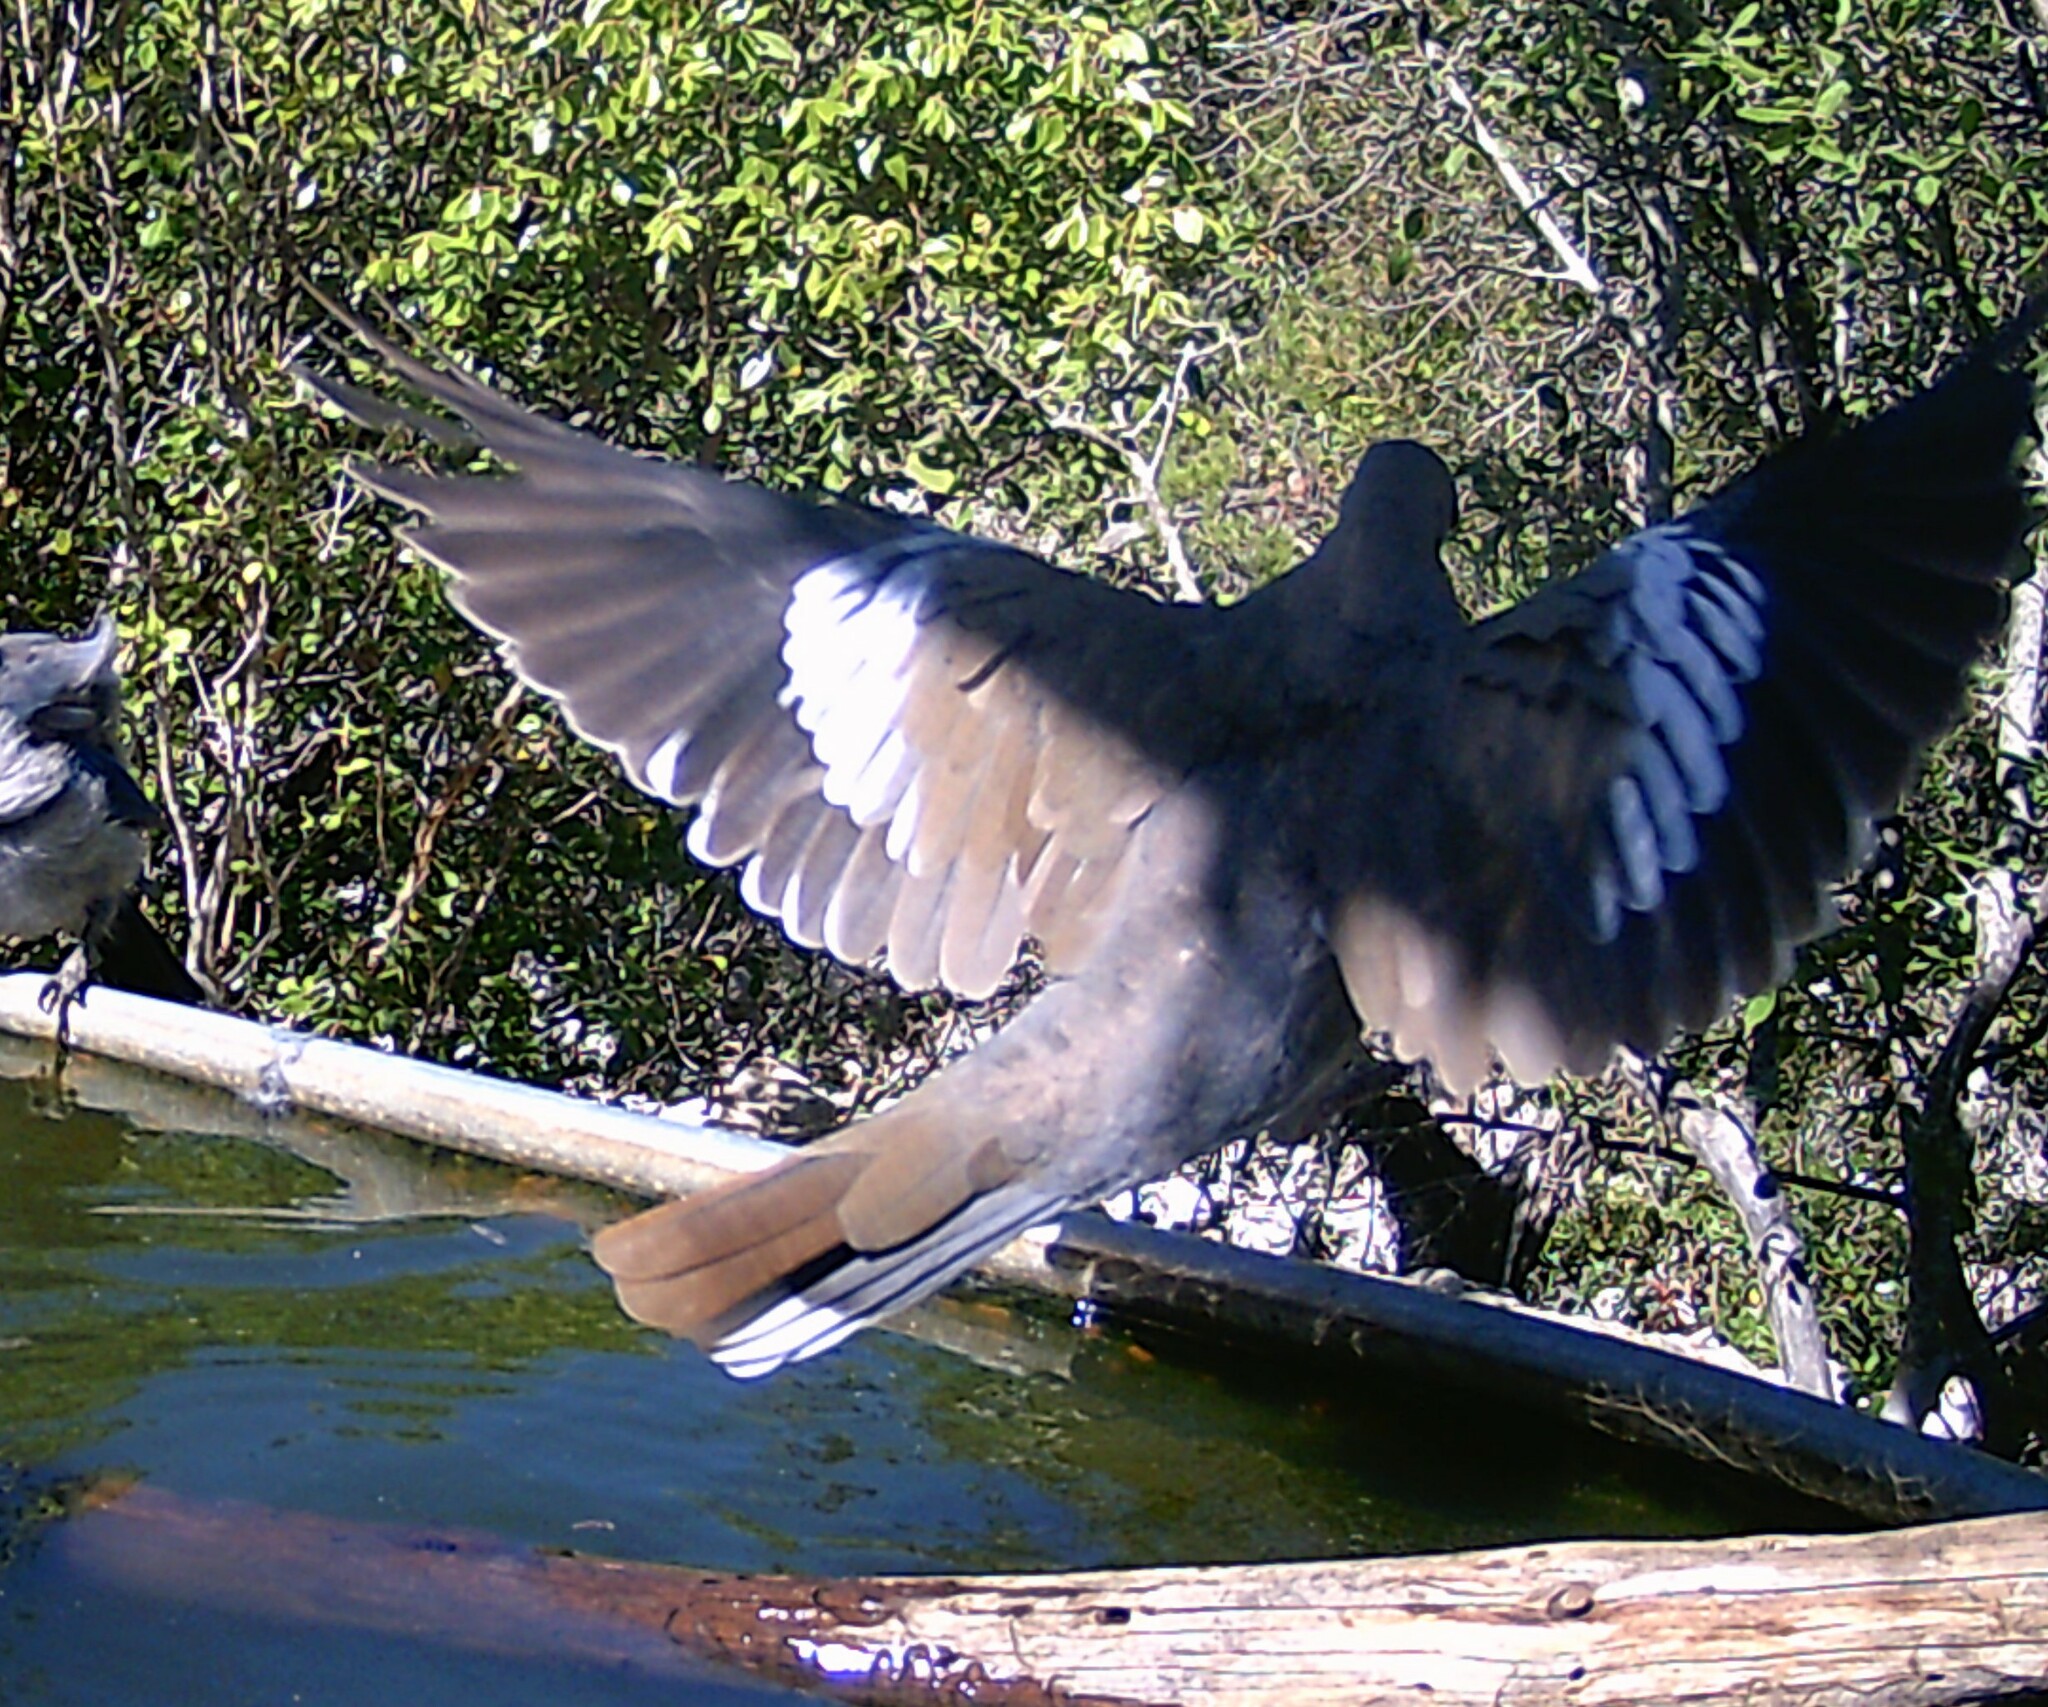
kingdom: Animalia
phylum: Chordata
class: Aves
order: Columbiformes
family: Columbidae
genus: Zenaida
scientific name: Zenaida asiatica
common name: White-winged dove
